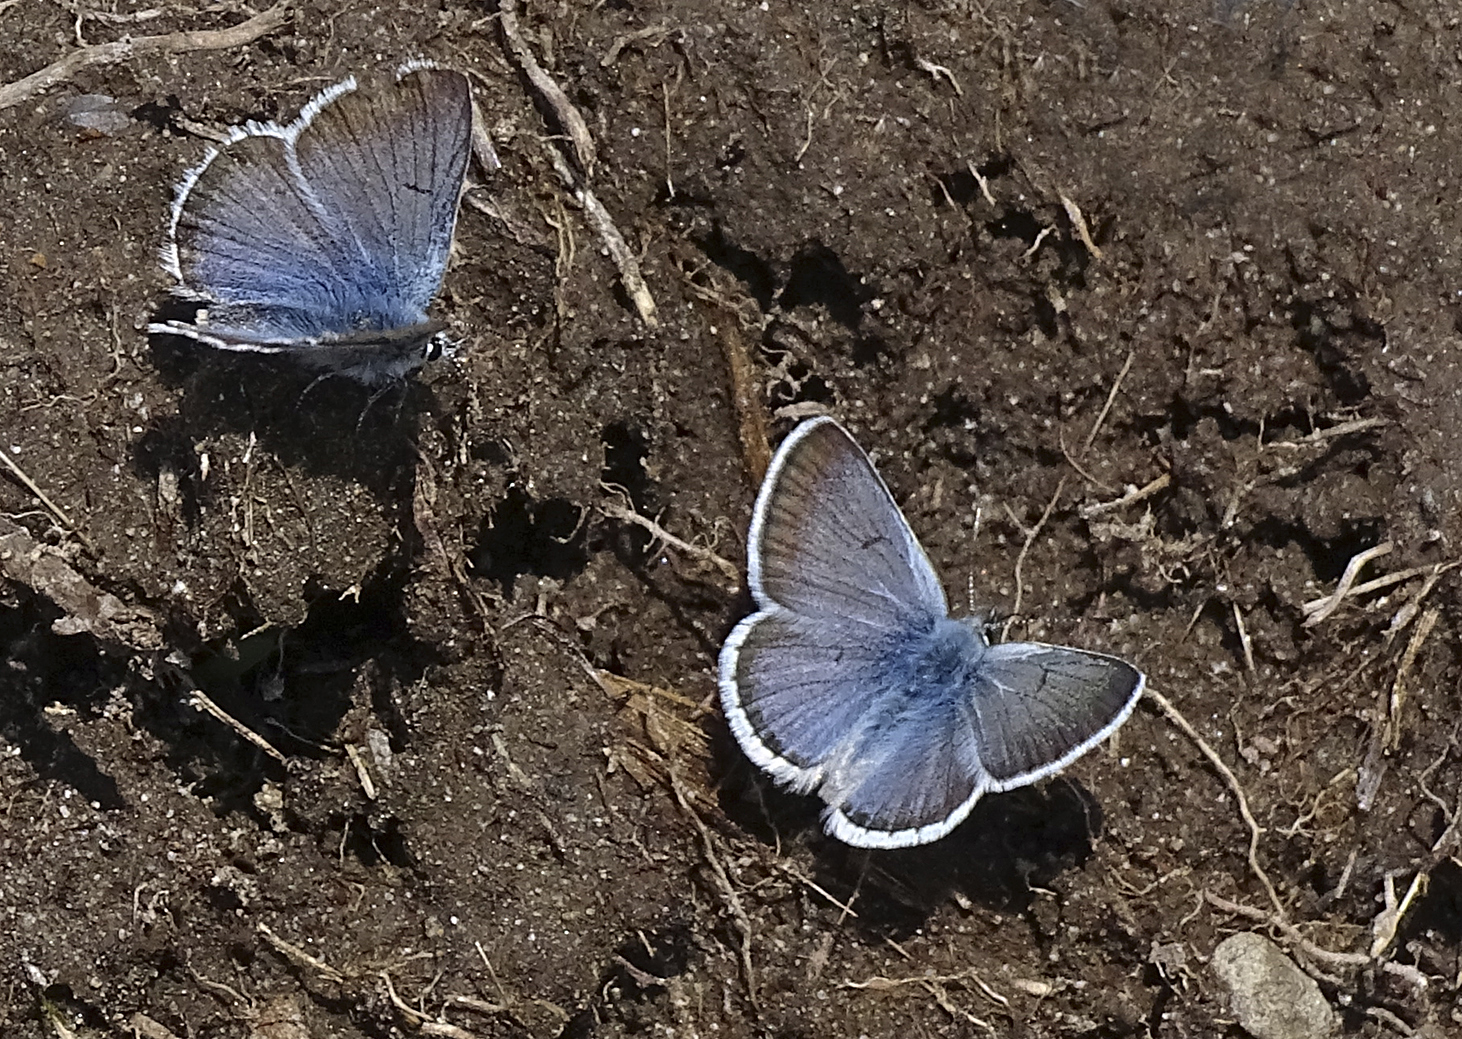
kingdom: Animalia
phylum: Arthropoda
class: Insecta
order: Lepidoptera
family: Lycaenidae
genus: Icaricia
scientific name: Icaricia saepiolus
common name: Greenish blue
